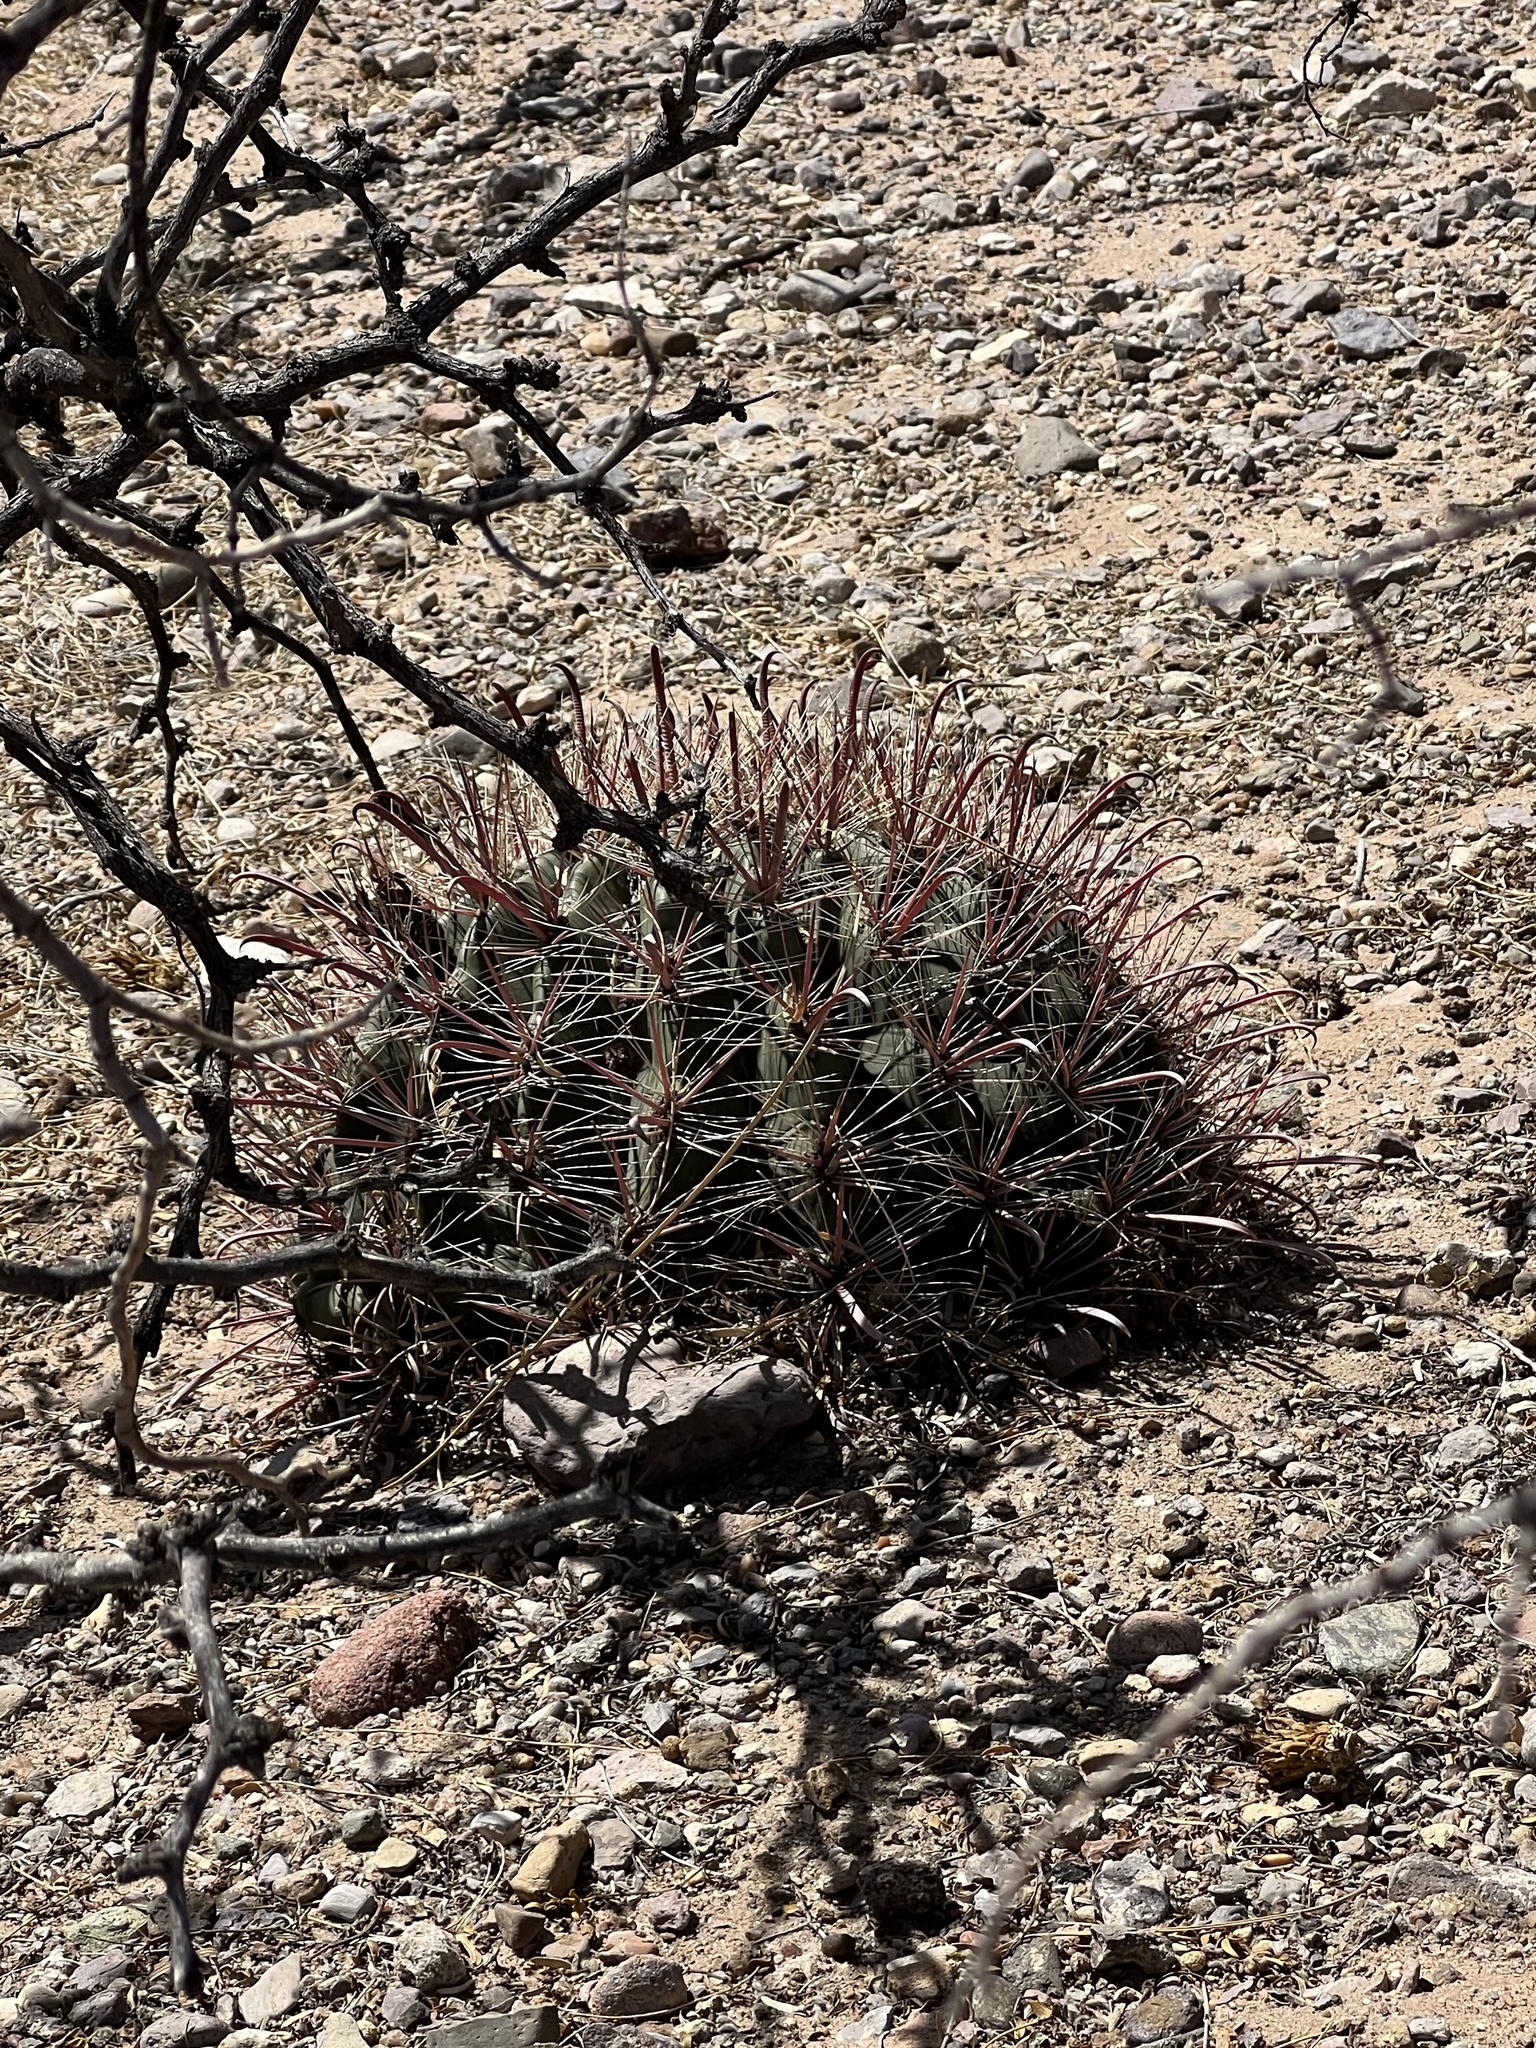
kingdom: Plantae
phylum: Tracheophyta
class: Magnoliopsida
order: Caryophyllales
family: Cactaceae
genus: Ferocactus
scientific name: Ferocactus wislizeni
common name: Candy barrel cactus
